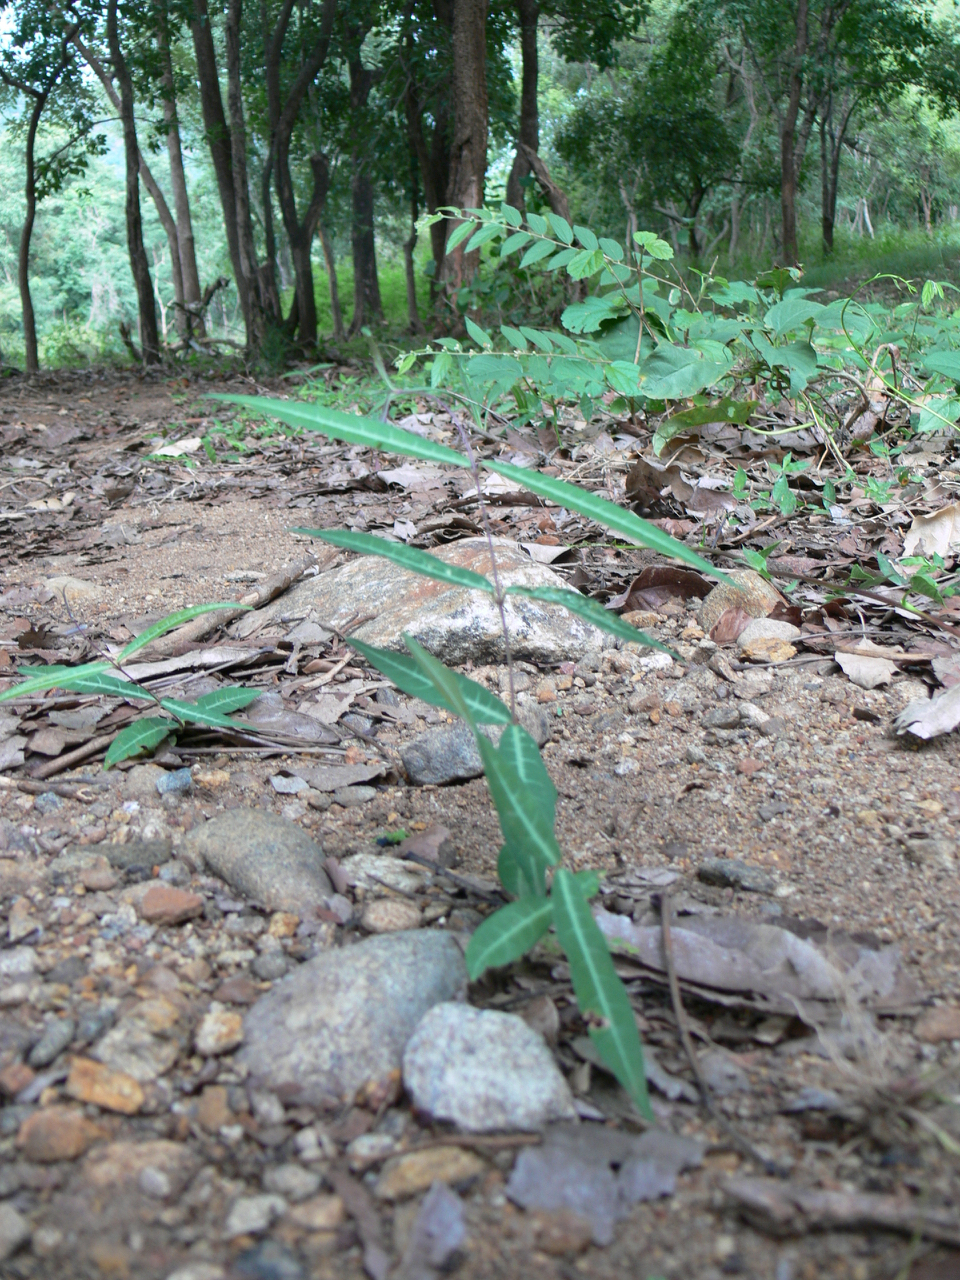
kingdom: Plantae
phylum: Tracheophyta
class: Magnoliopsida
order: Gentianales
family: Apocynaceae
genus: Hemidesmus
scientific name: Hemidesmus indicus
